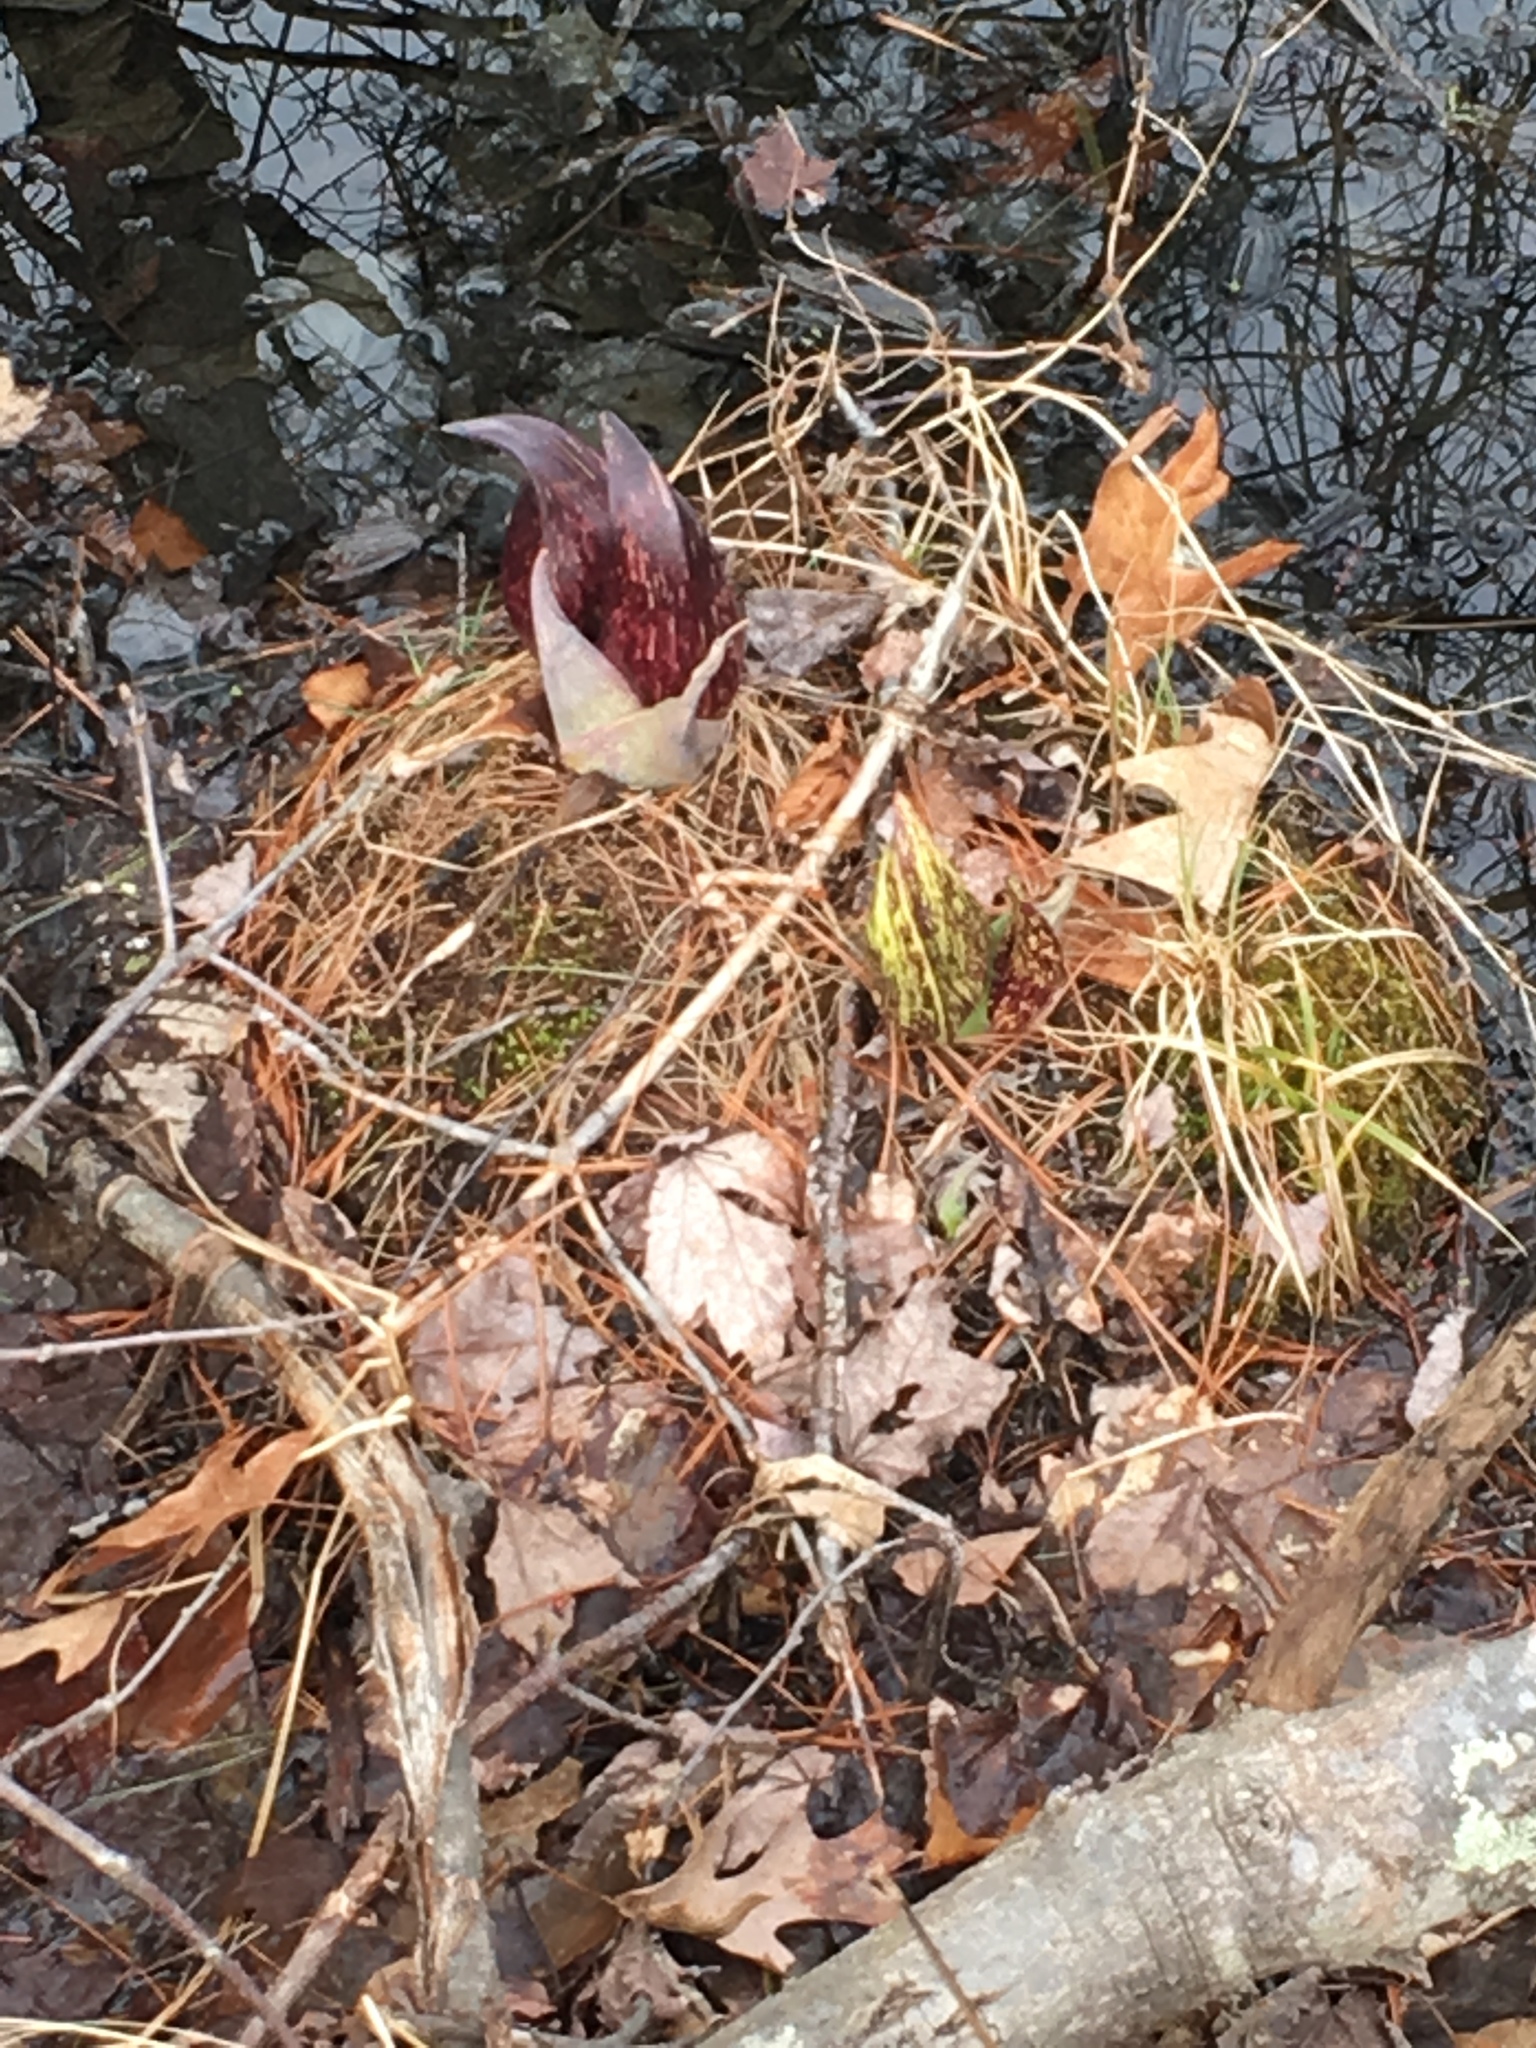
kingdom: Plantae
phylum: Tracheophyta
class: Liliopsida
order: Alismatales
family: Araceae
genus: Symplocarpus
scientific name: Symplocarpus foetidus
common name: Eastern skunk cabbage
